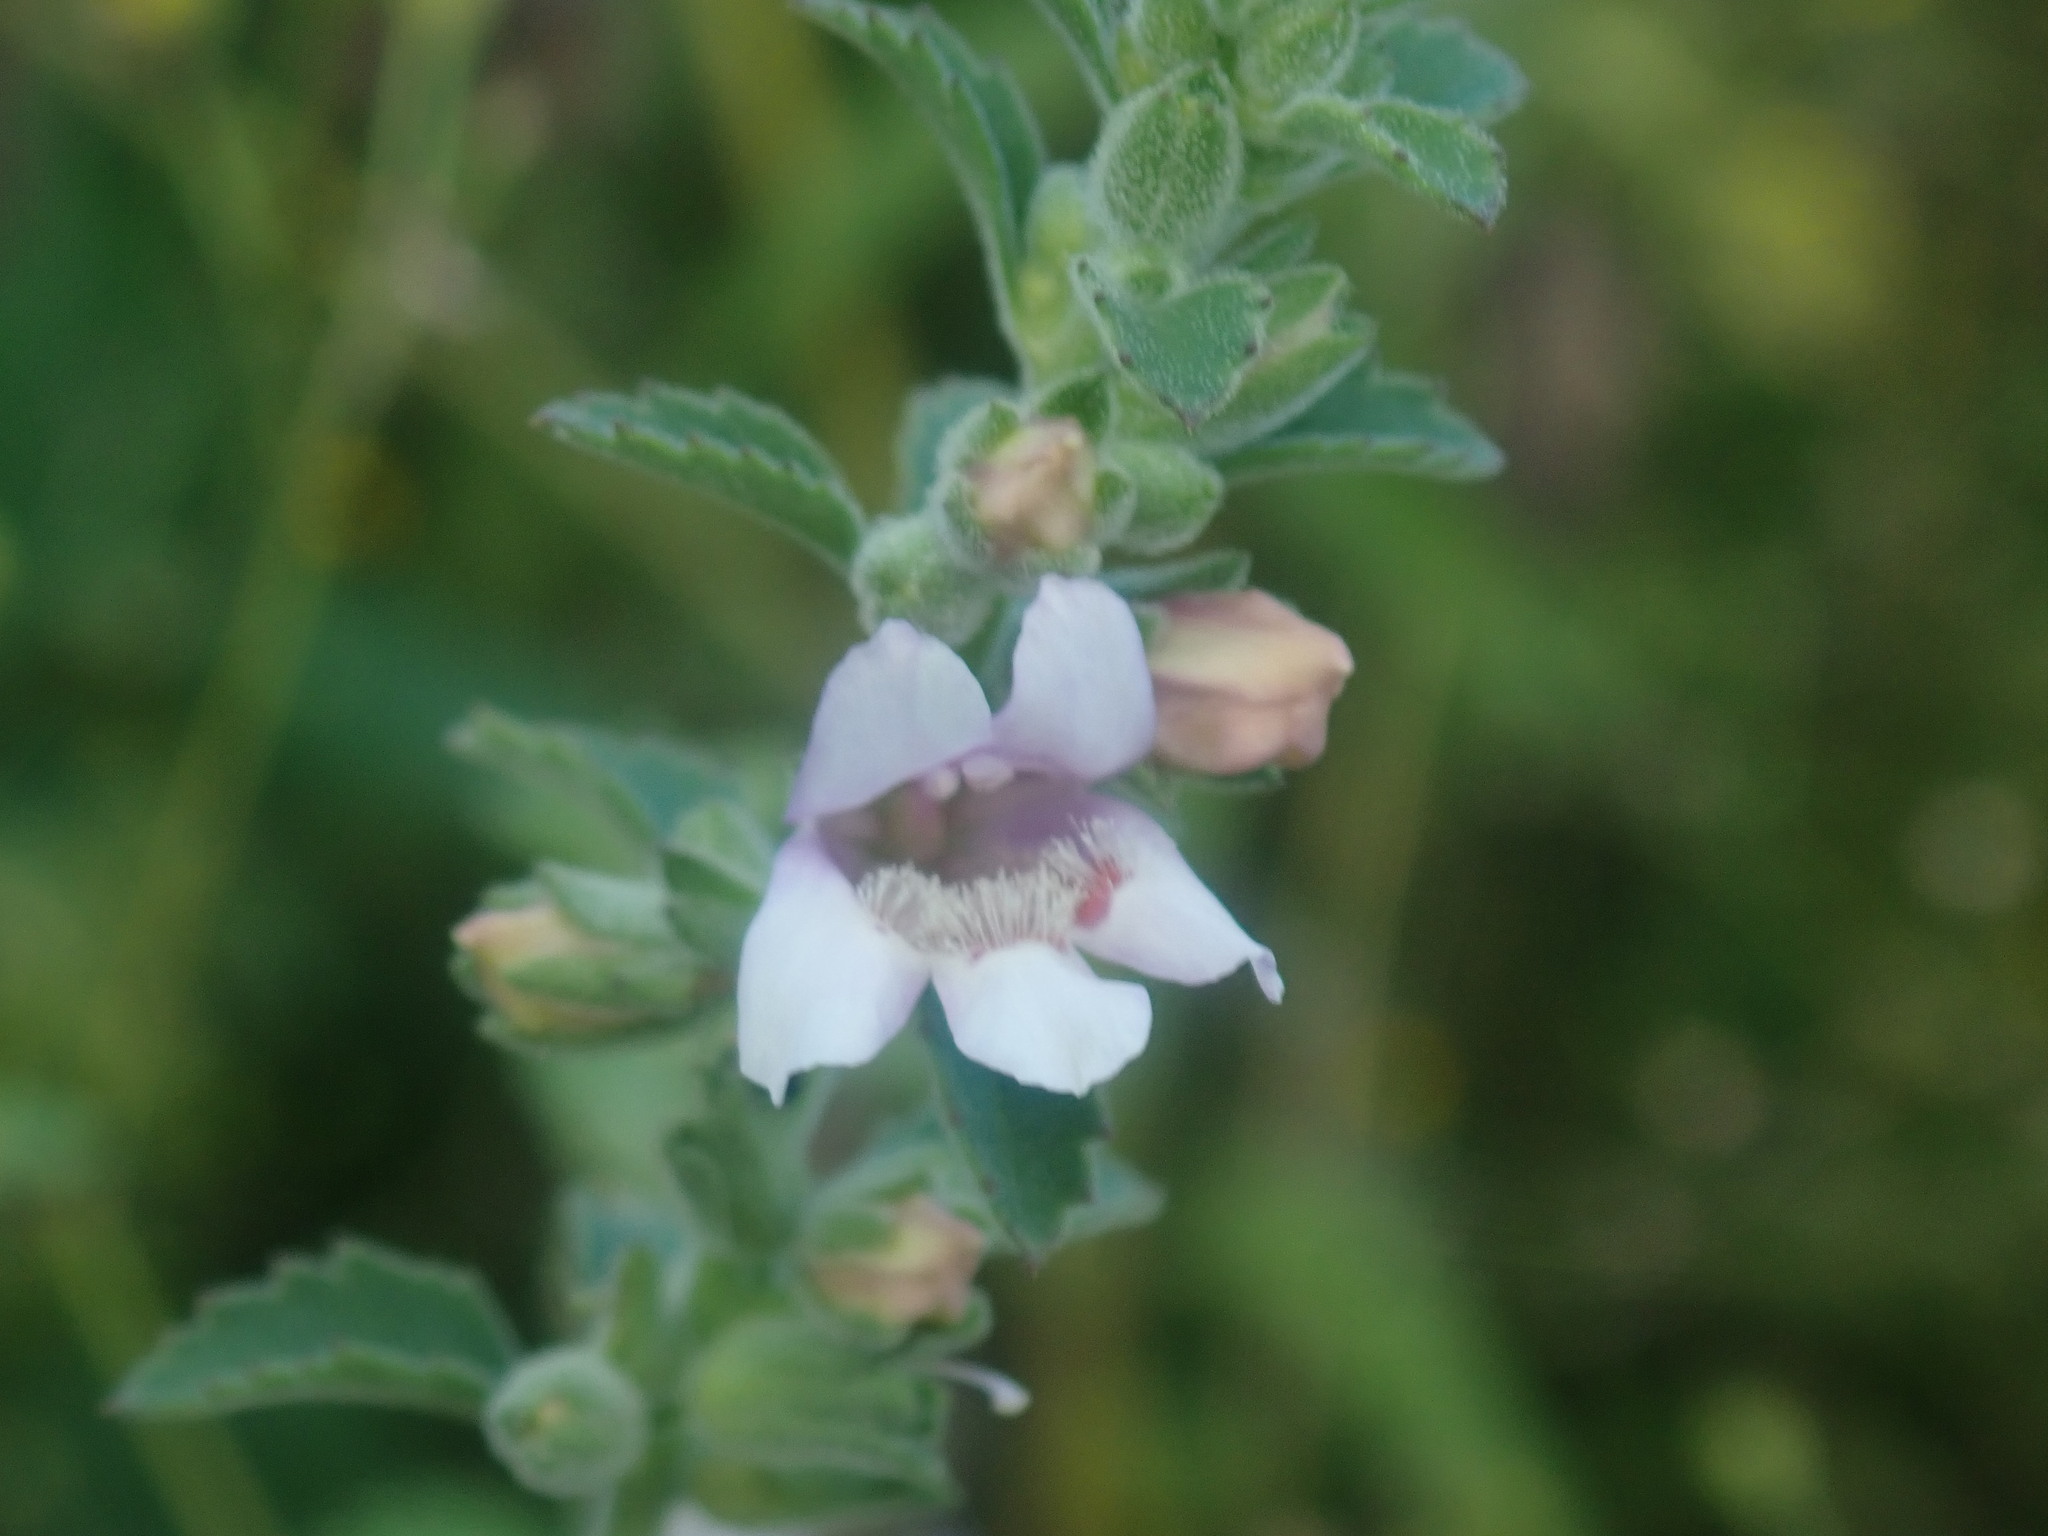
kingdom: Plantae
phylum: Tracheophyta
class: Magnoliopsida
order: Lamiales
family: Scrophulariaceae
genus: Capraria
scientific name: Capraria frutescens
